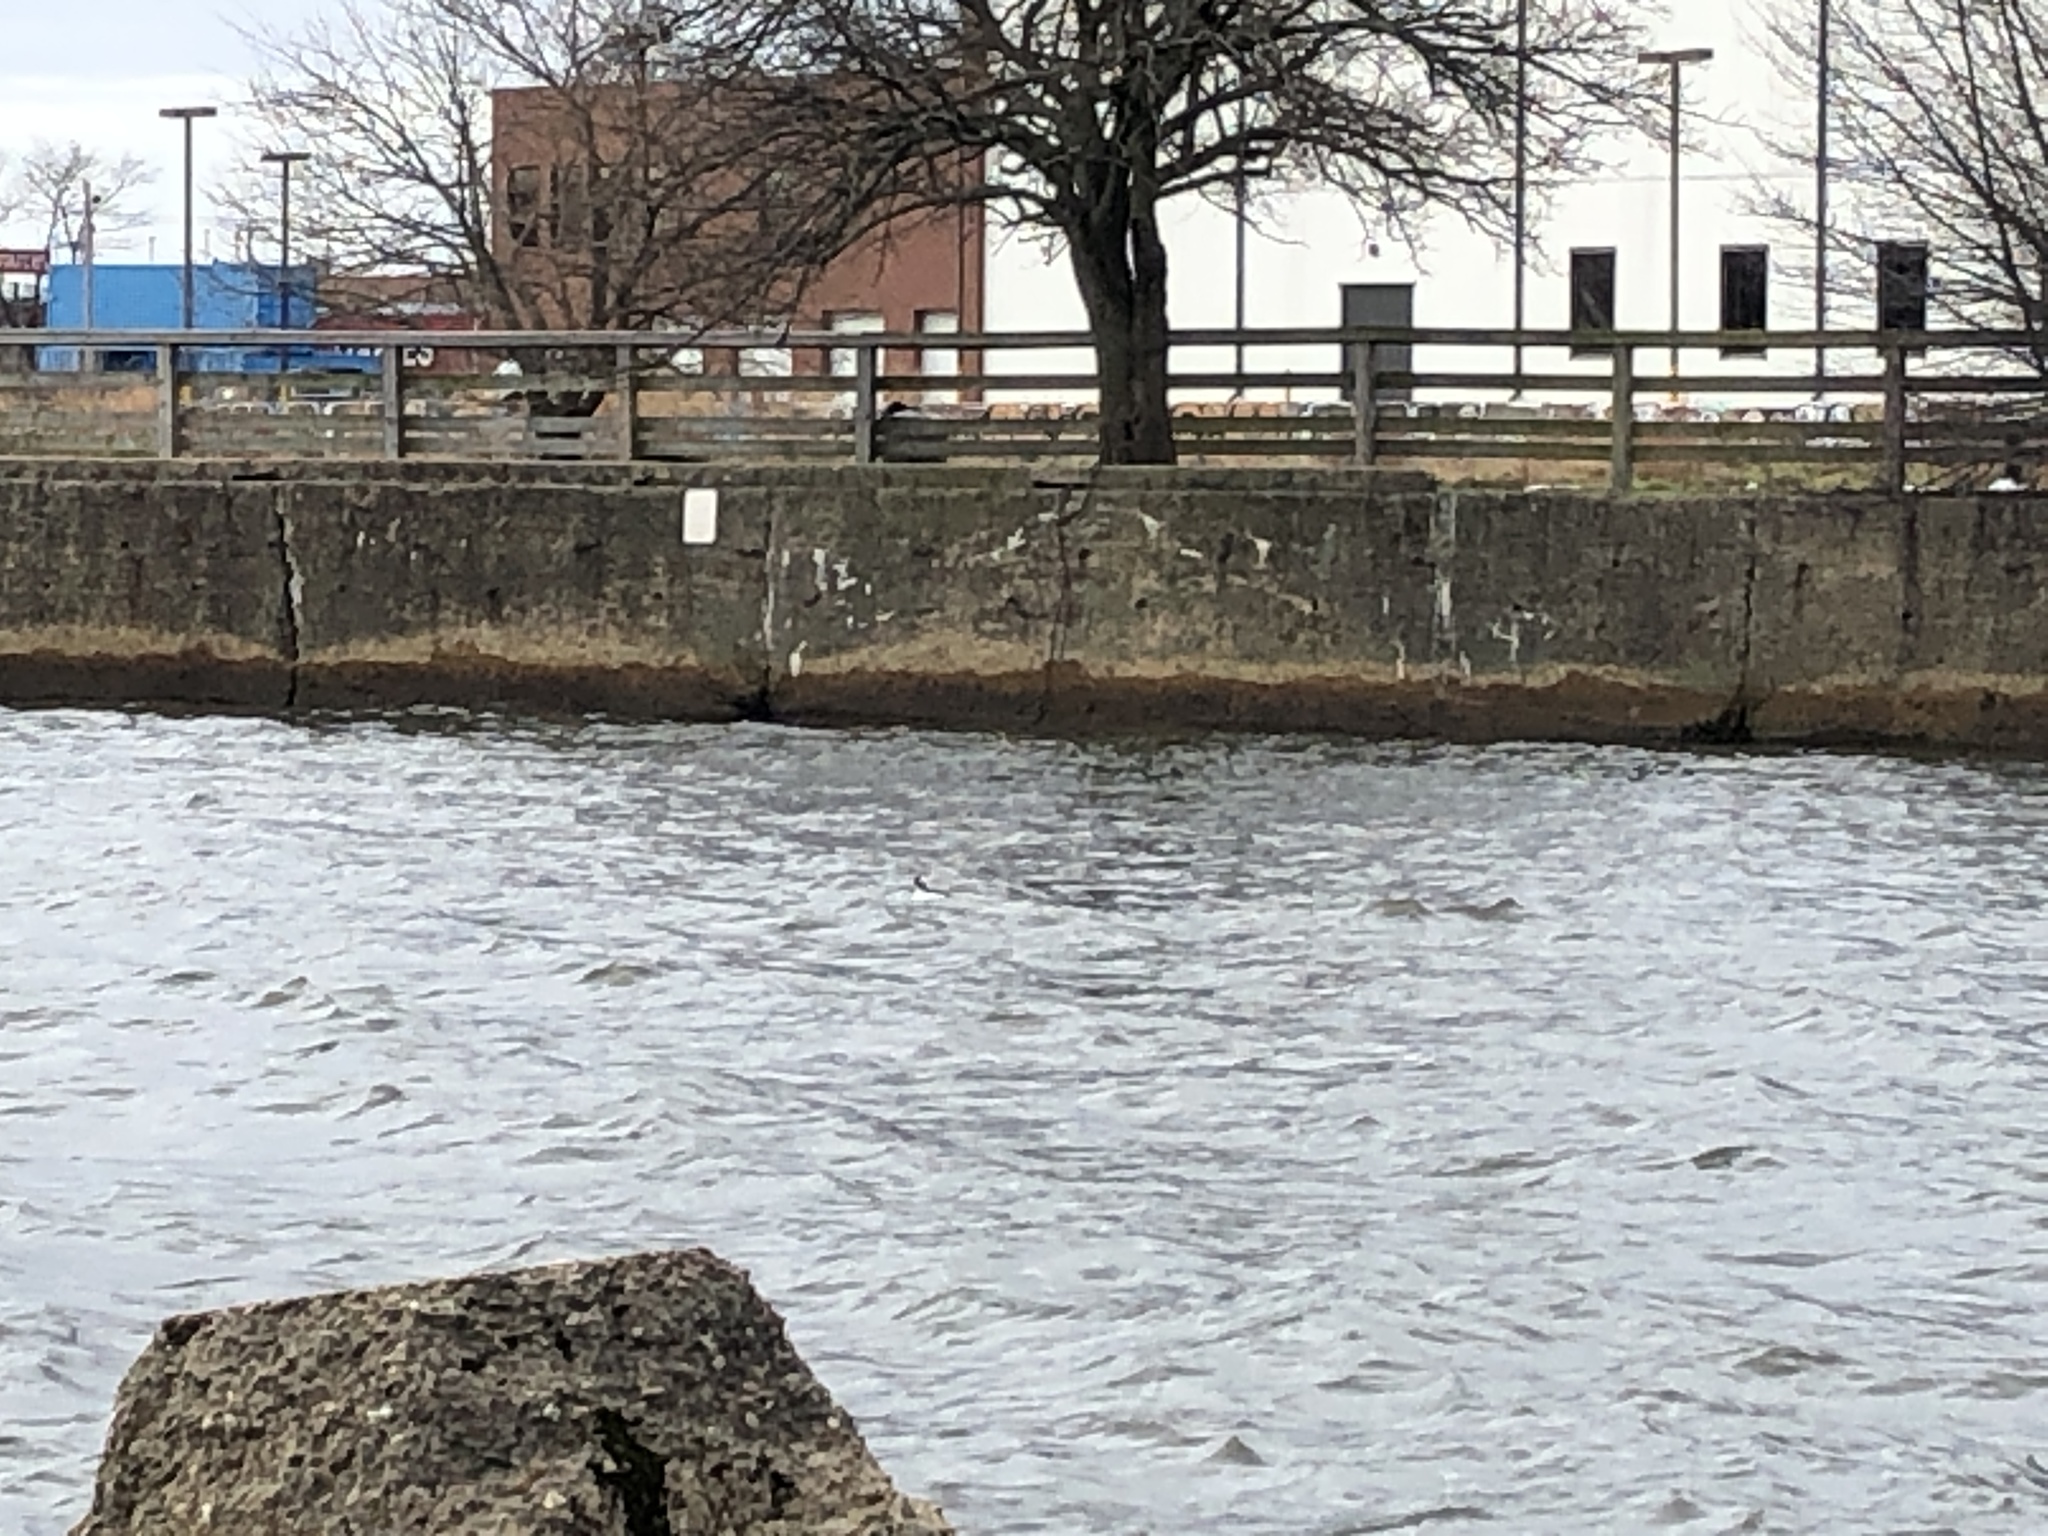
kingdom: Animalia
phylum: Chordata
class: Aves
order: Anseriformes
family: Anatidae
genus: Bucephala
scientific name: Bucephala albeola
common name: Bufflehead
